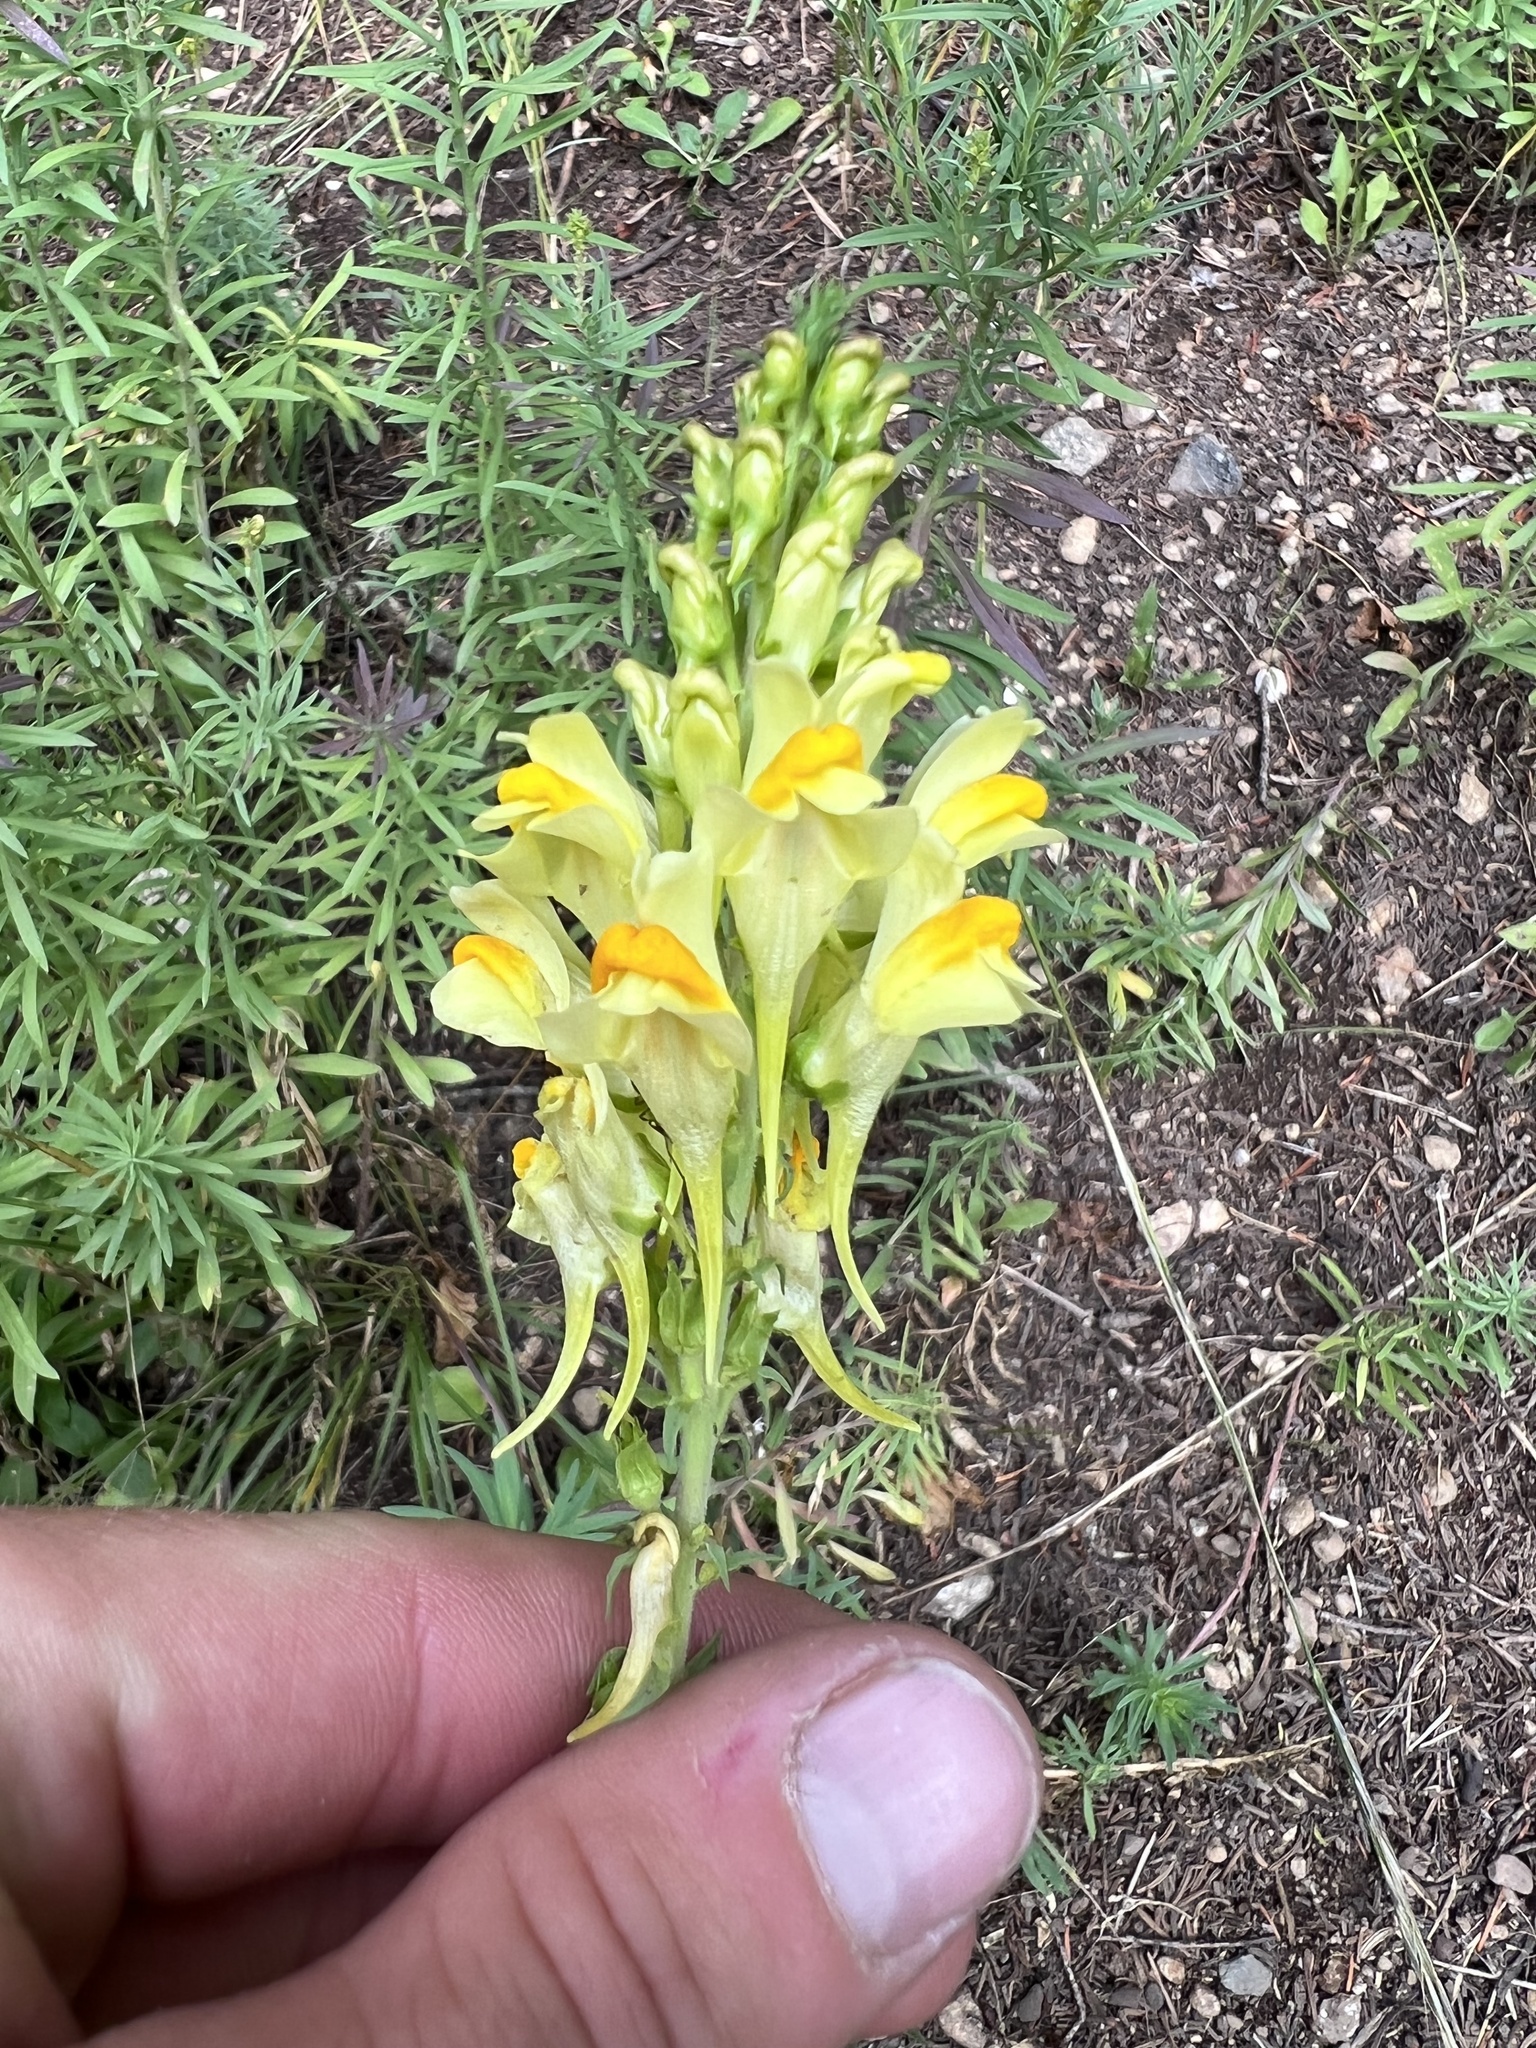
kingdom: Plantae
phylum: Tracheophyta
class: Magnoliopsida
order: Lamiales
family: Plantaginaceae
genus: Linaria
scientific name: Linaria vulgaris
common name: Butter and eggs
